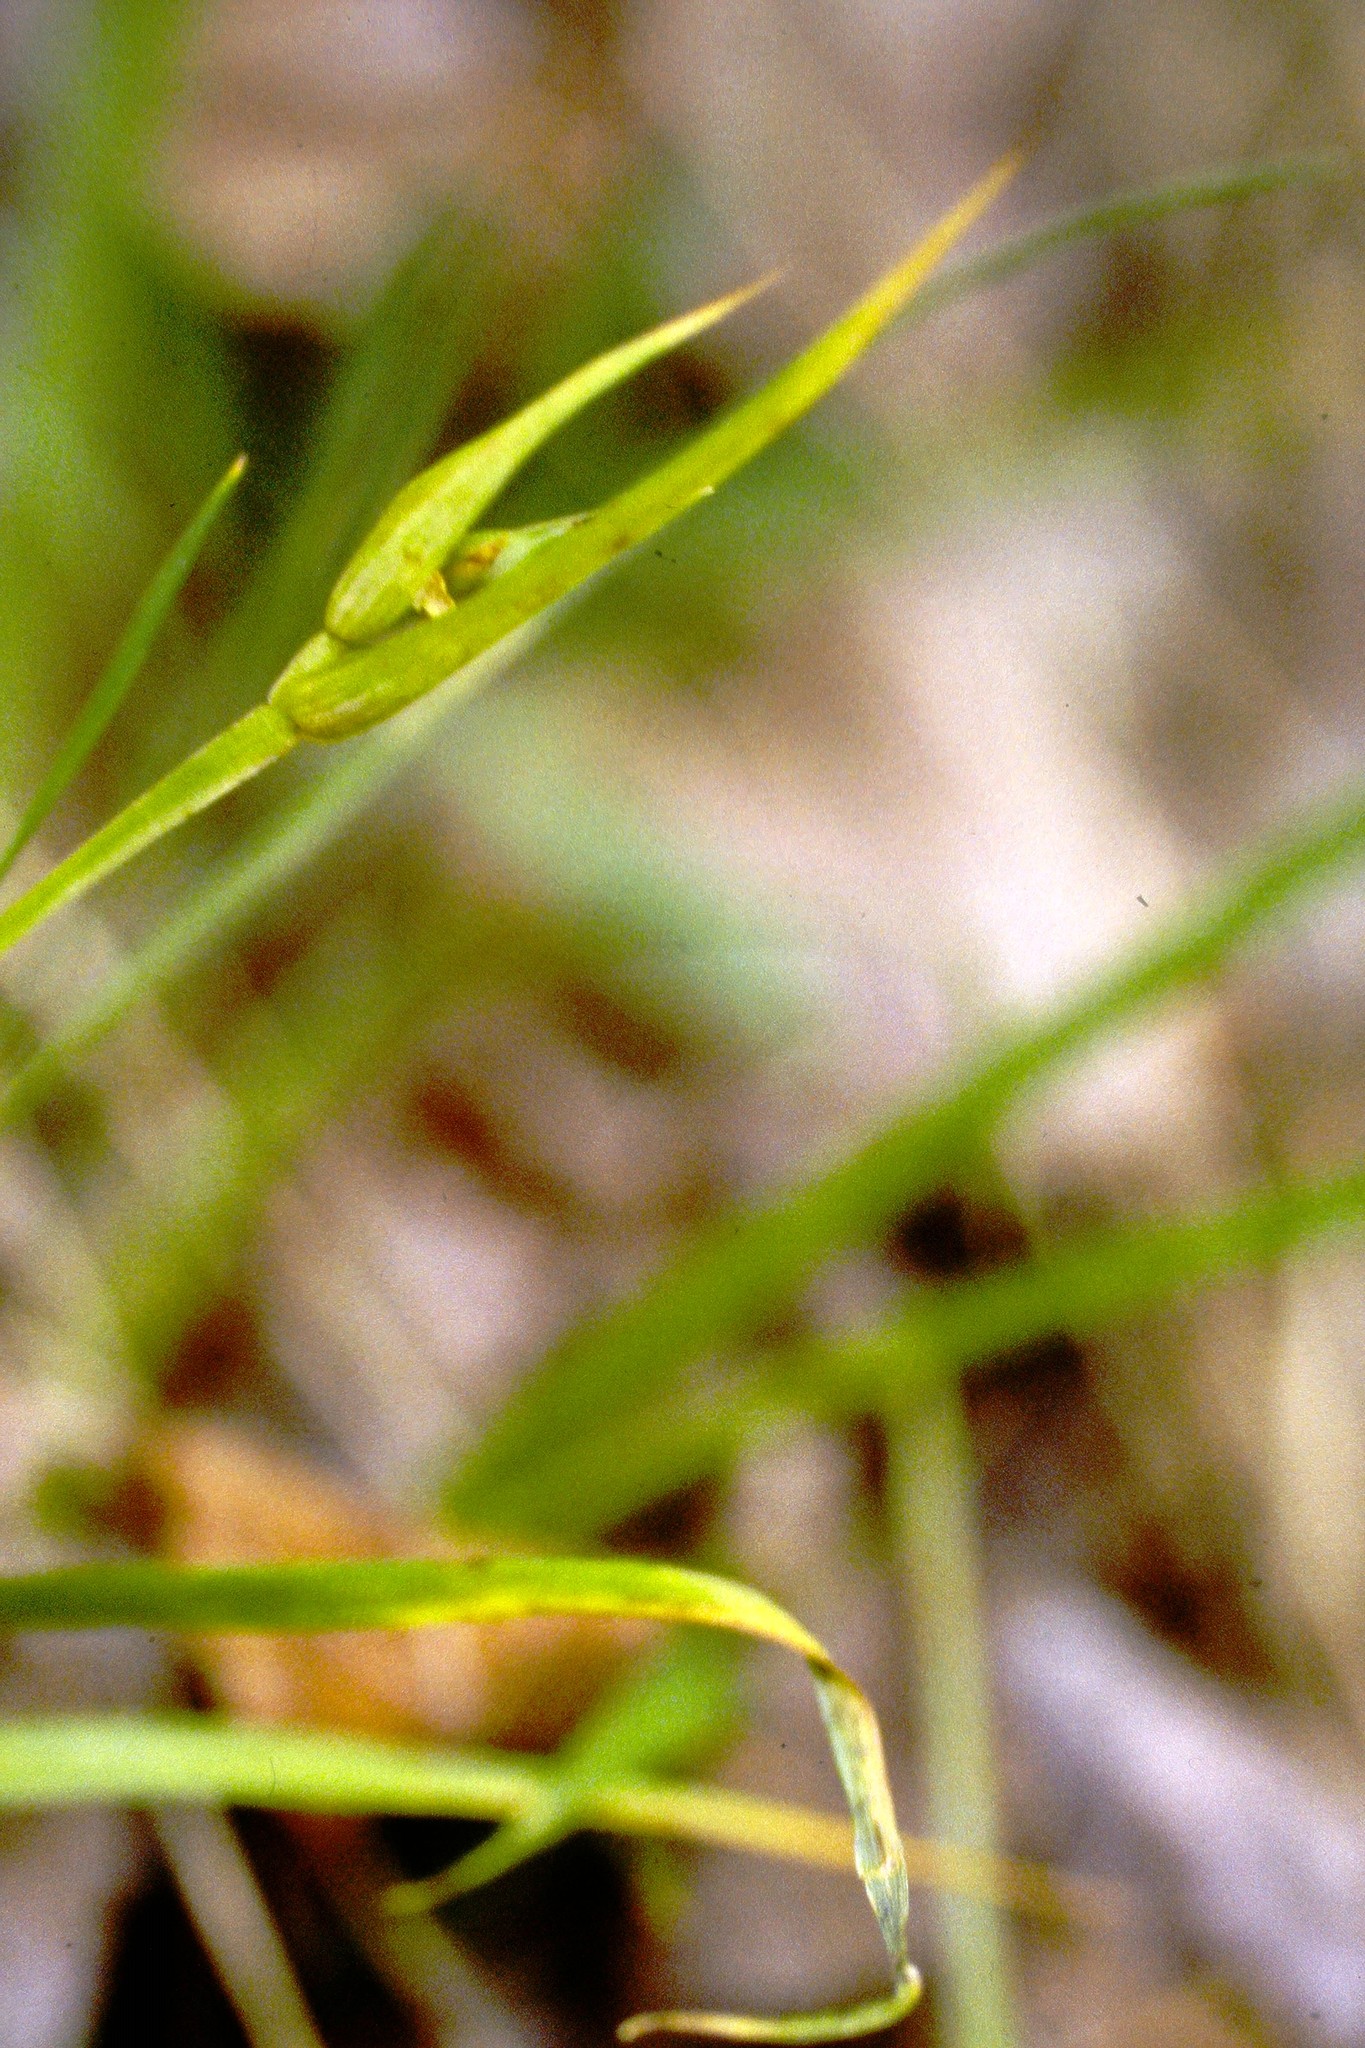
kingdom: Plantae
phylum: Tracheophyta
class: Liliopsida
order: Poales
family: Cyperaceae
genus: Carex
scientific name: Carex backii
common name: Back's sedge
